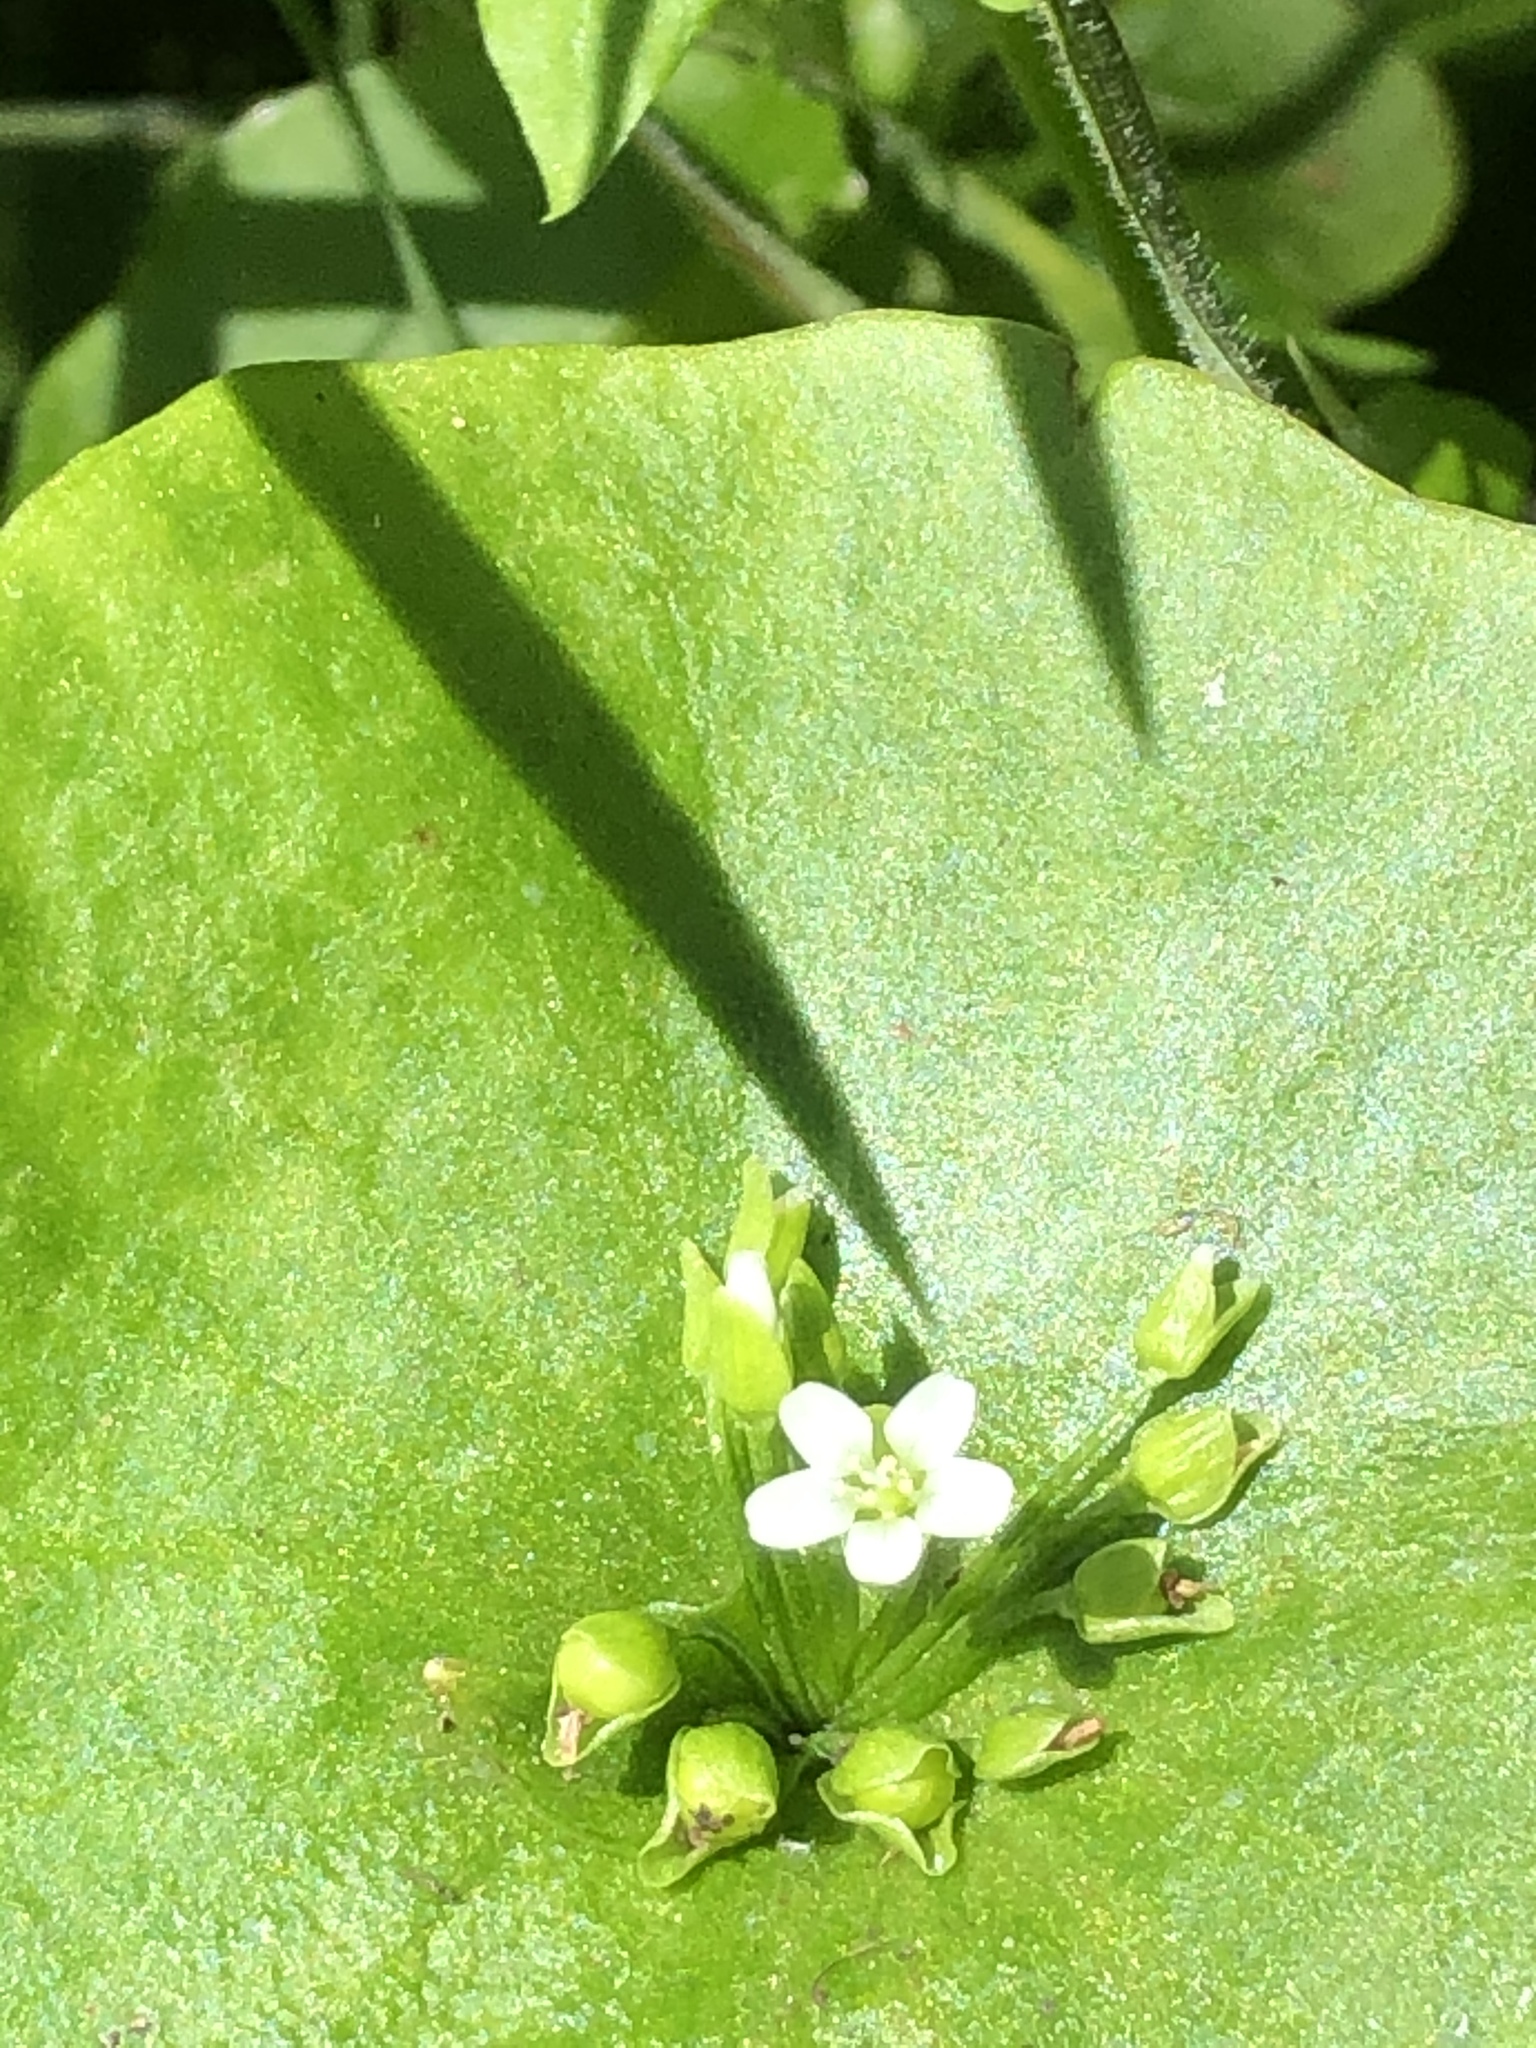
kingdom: Plantae
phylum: Tracheophyta
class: Magnoliopsida
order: Caryophyllales
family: Montiaceae
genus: Claytonia
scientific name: Claytonia perfoliata
